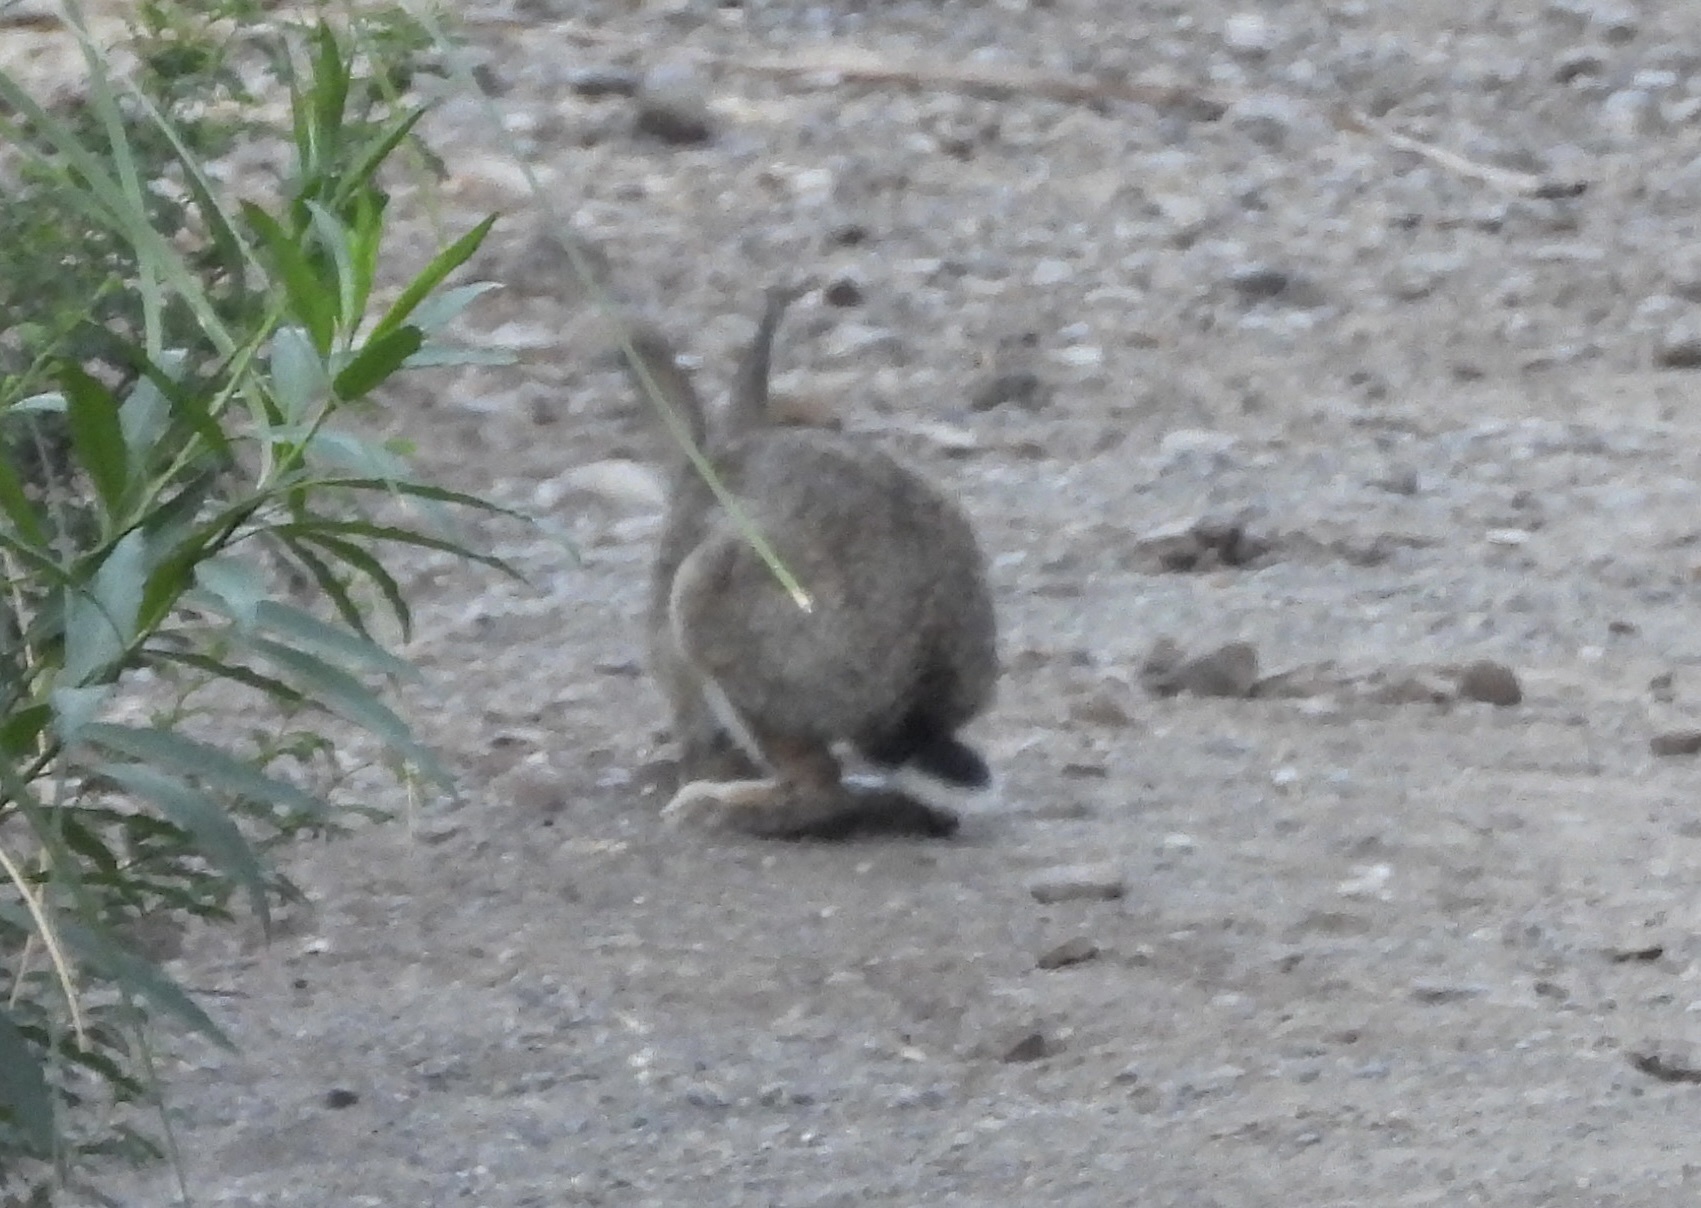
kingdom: Animalia
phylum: Chordata
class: Mammalia
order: Lagomorpha
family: Leporidae
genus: Oryctolagus
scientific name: Oryctolagus cuniculus
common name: European rabbit
